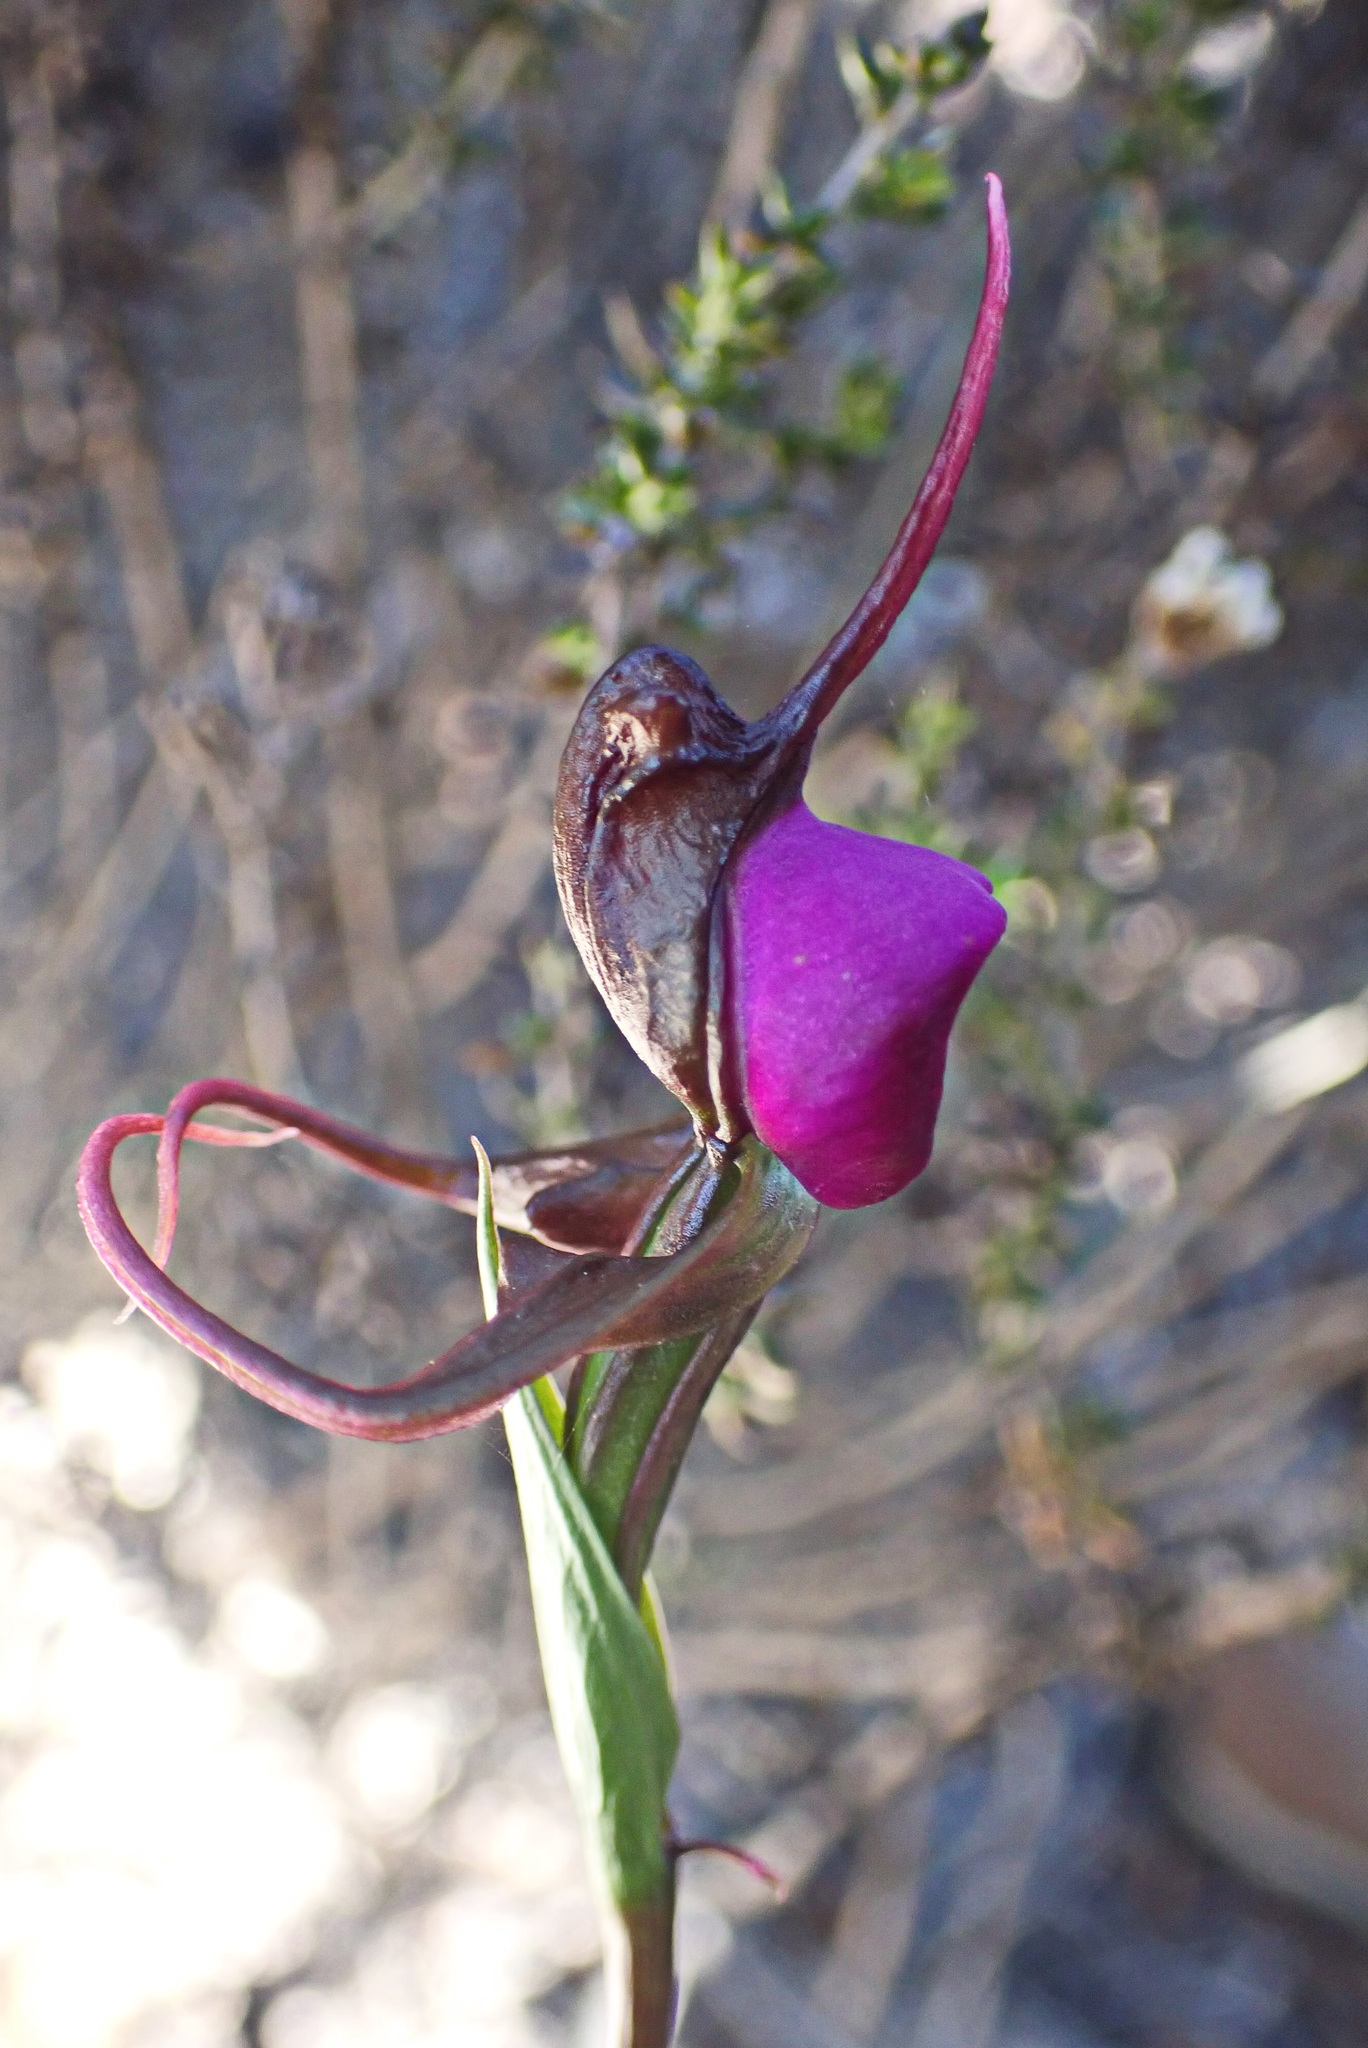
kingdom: Plantae
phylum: Tracheophyta
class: Liliopsida
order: Asparagales
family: Orchidaceae
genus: Disperis
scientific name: Disperis capensis
